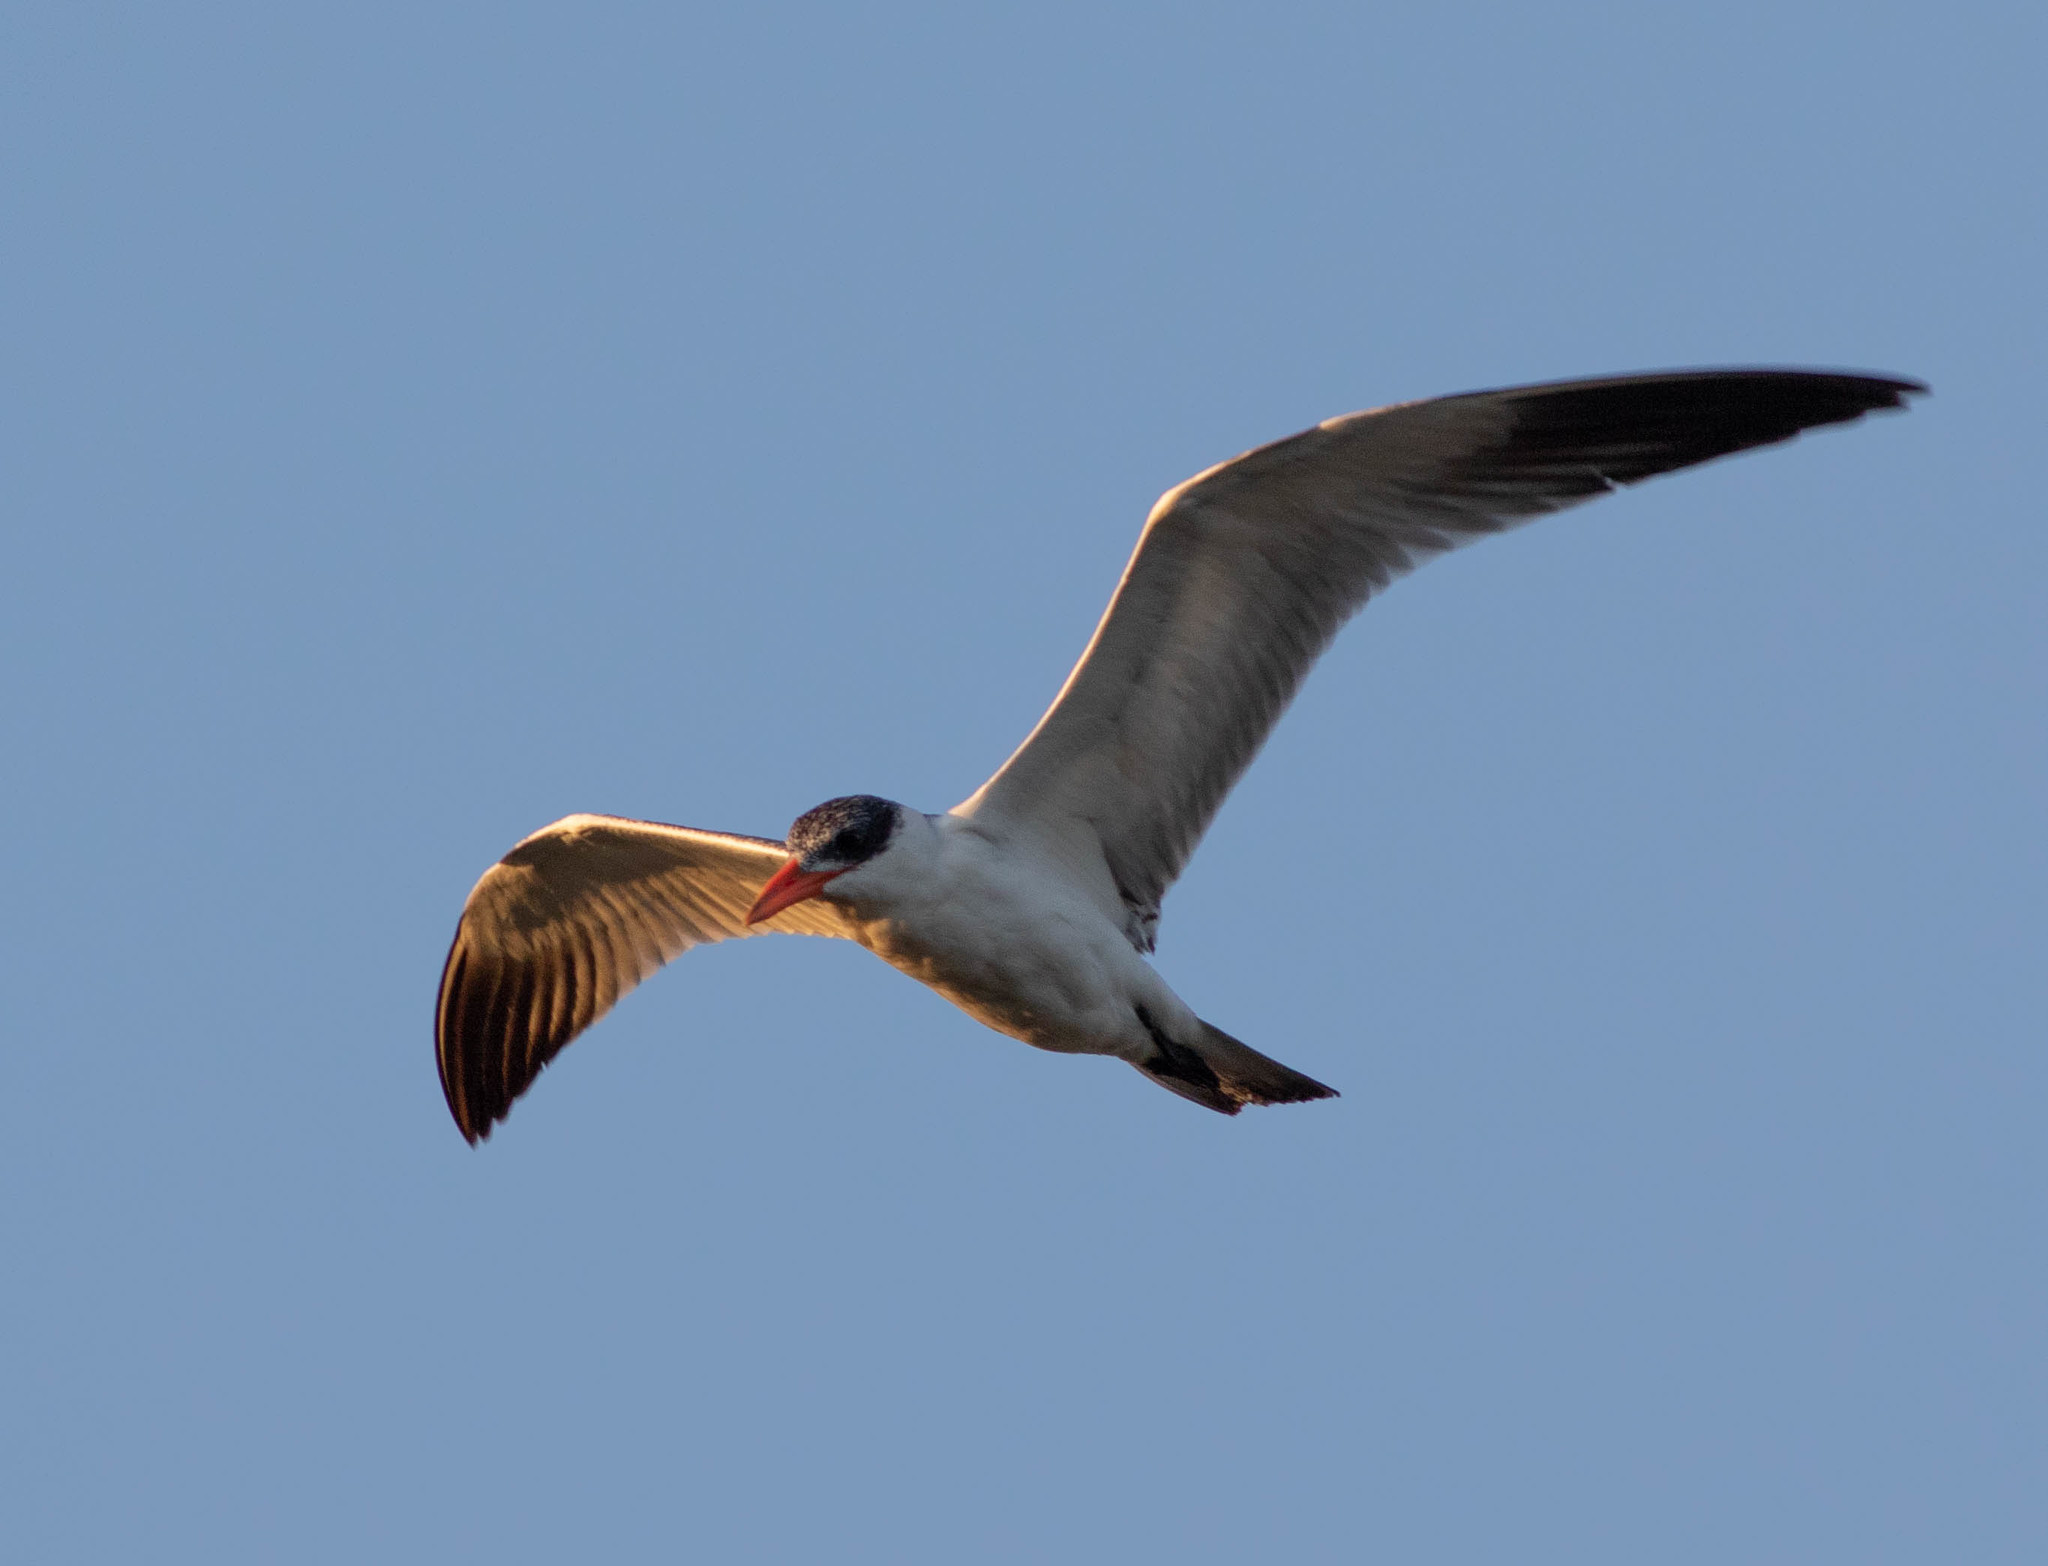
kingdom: Animalia
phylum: Chordata
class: Aves
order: Charadriiformes
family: Laridae
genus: Hydroprogne
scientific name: Hydroprogne caspia
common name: Caspian tern
